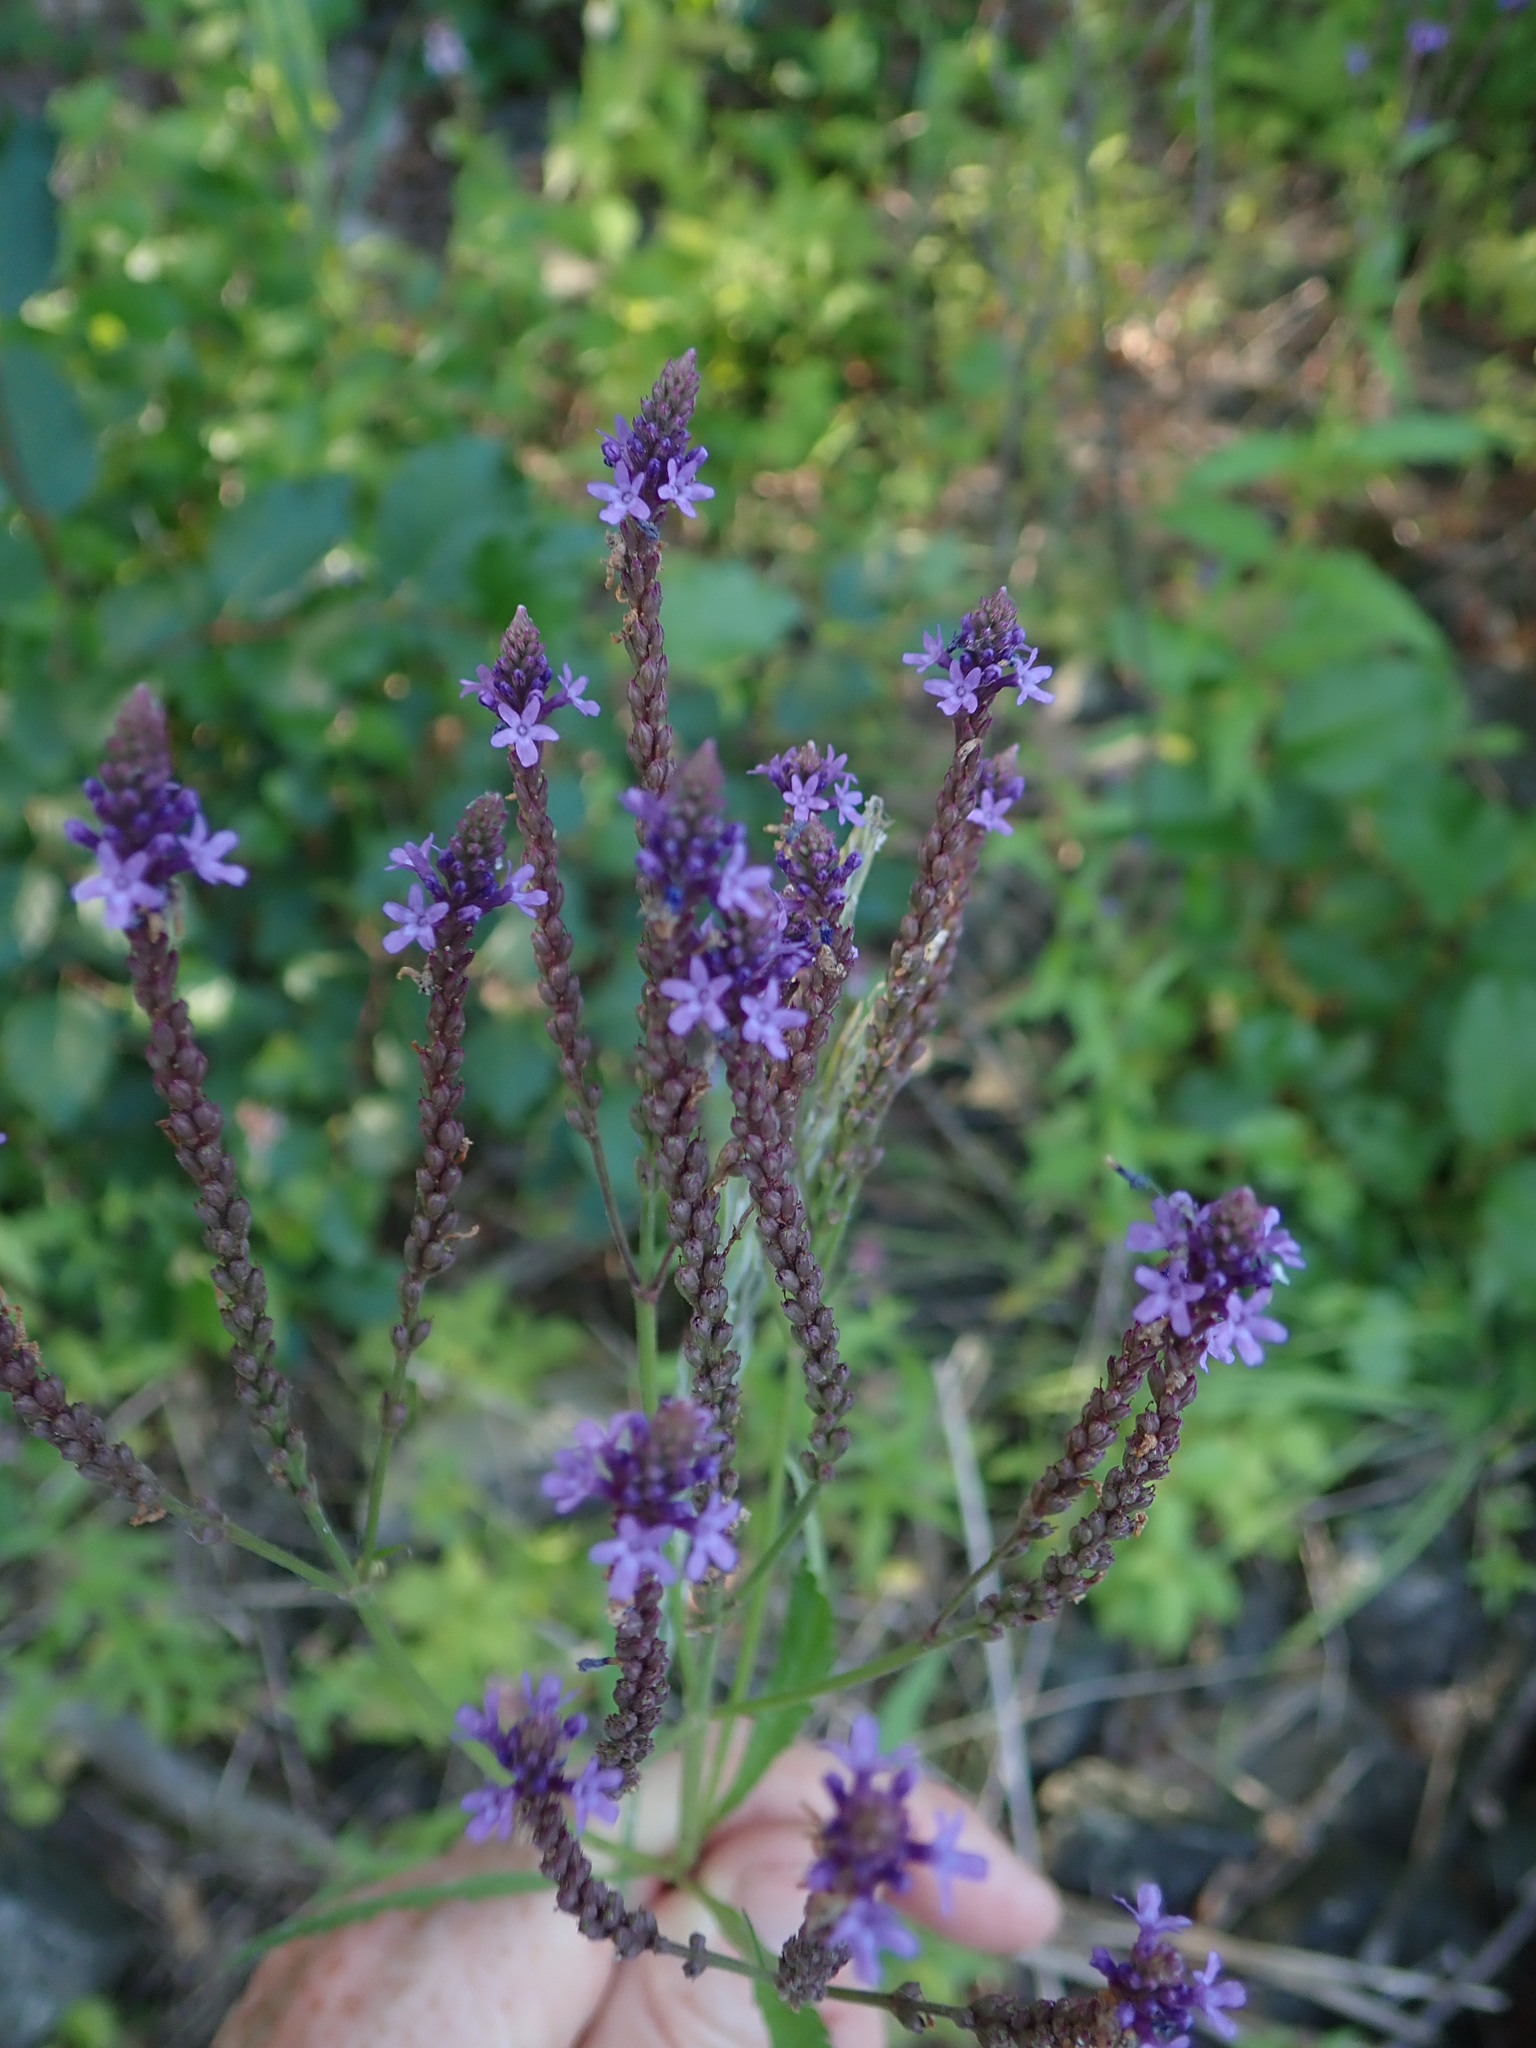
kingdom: Plantae
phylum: Tracheophyta
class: Magnoliopsida
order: Lamiales
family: Verbenaceae
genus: Verbena
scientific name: Verbena hastata
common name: American blue vervain
